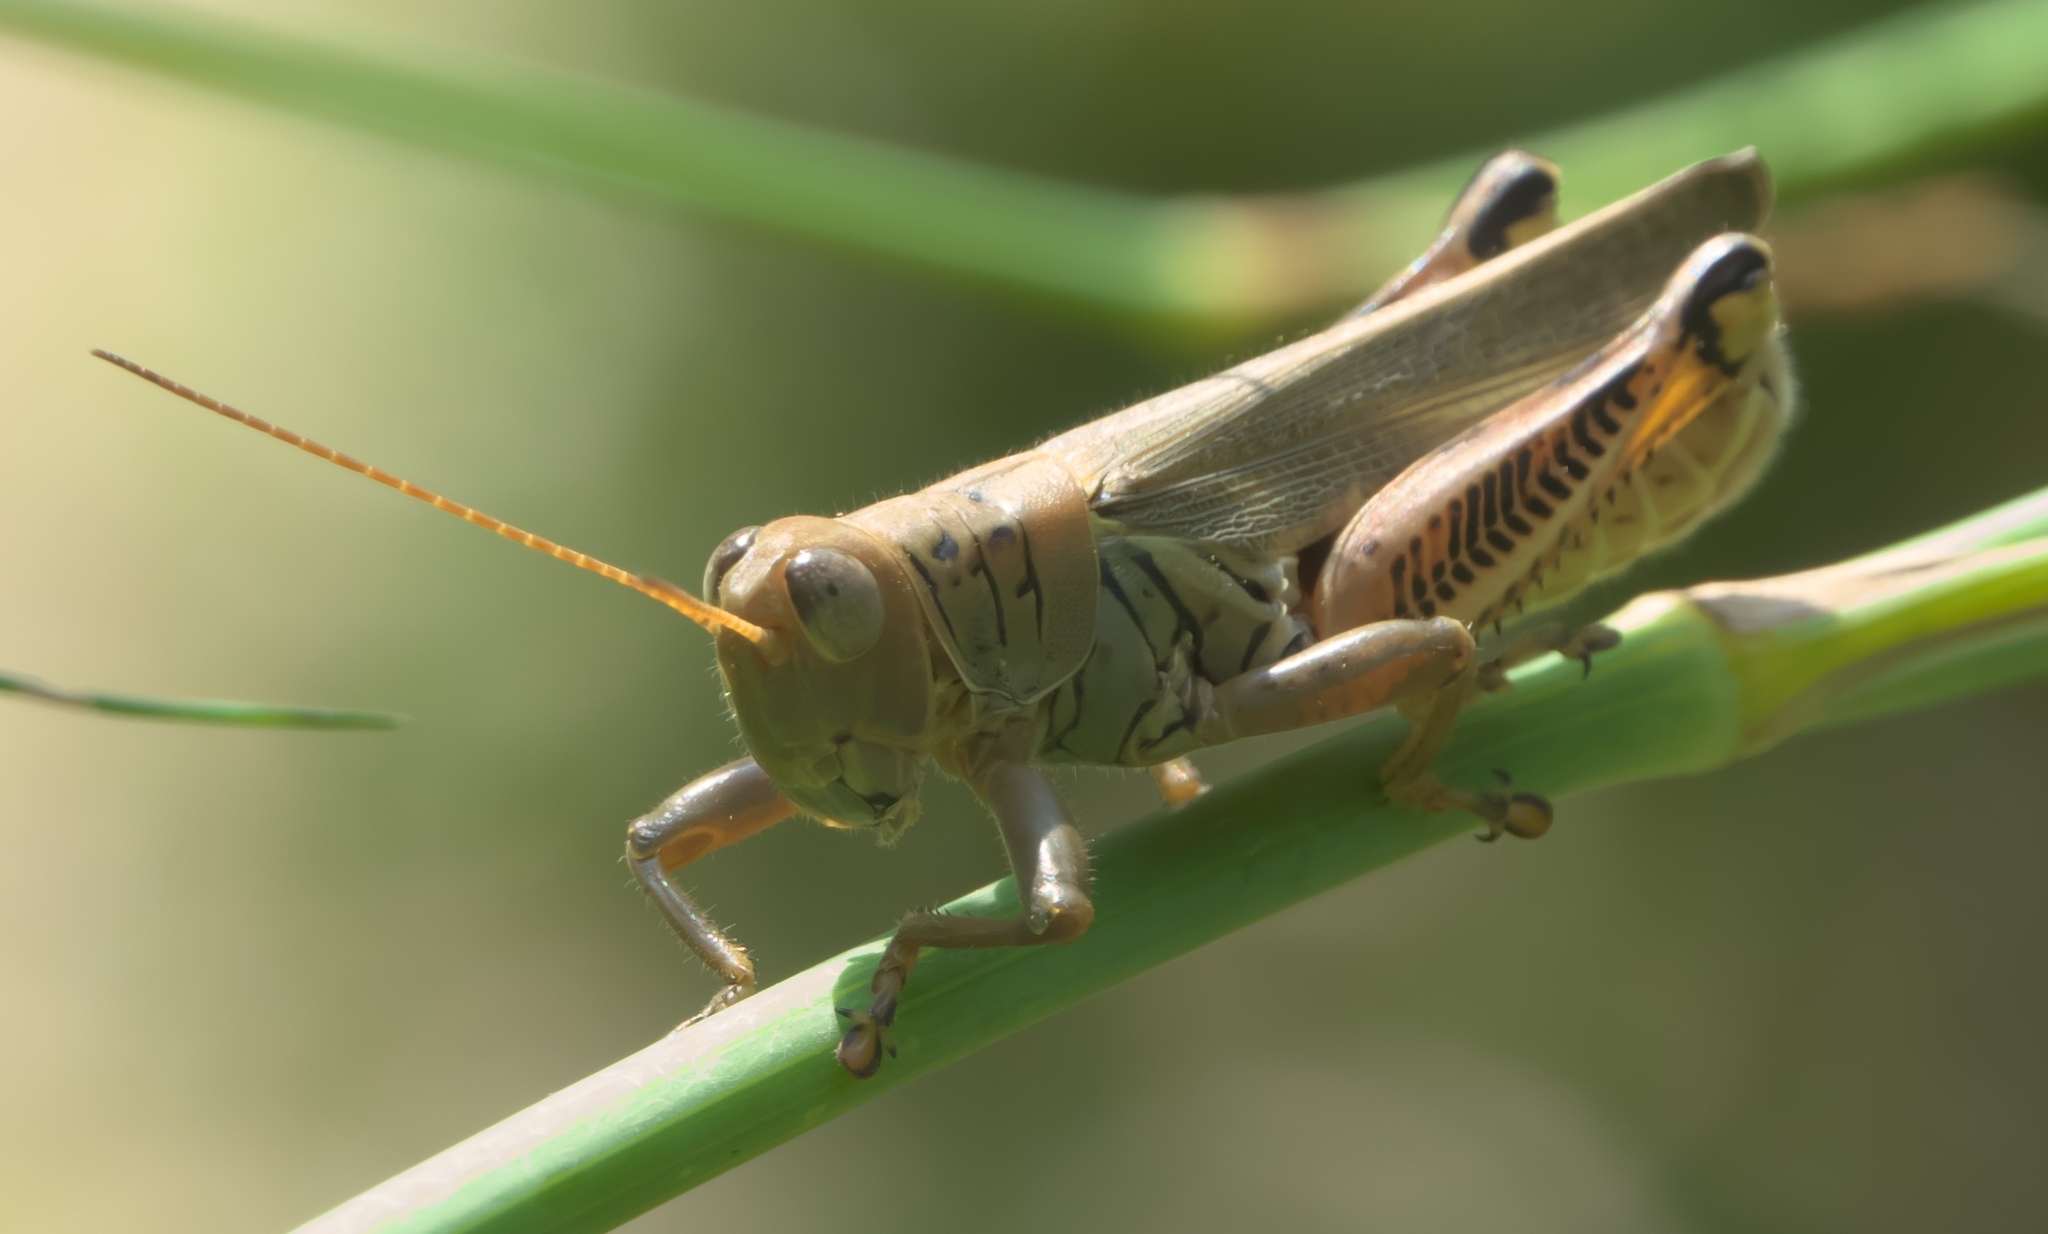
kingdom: Animalia
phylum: Arthropoda
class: Insecta
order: Orthoptera
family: Acrididae
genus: Melanoplus
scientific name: Melanoplus differentialis
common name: Differential grasshopper
